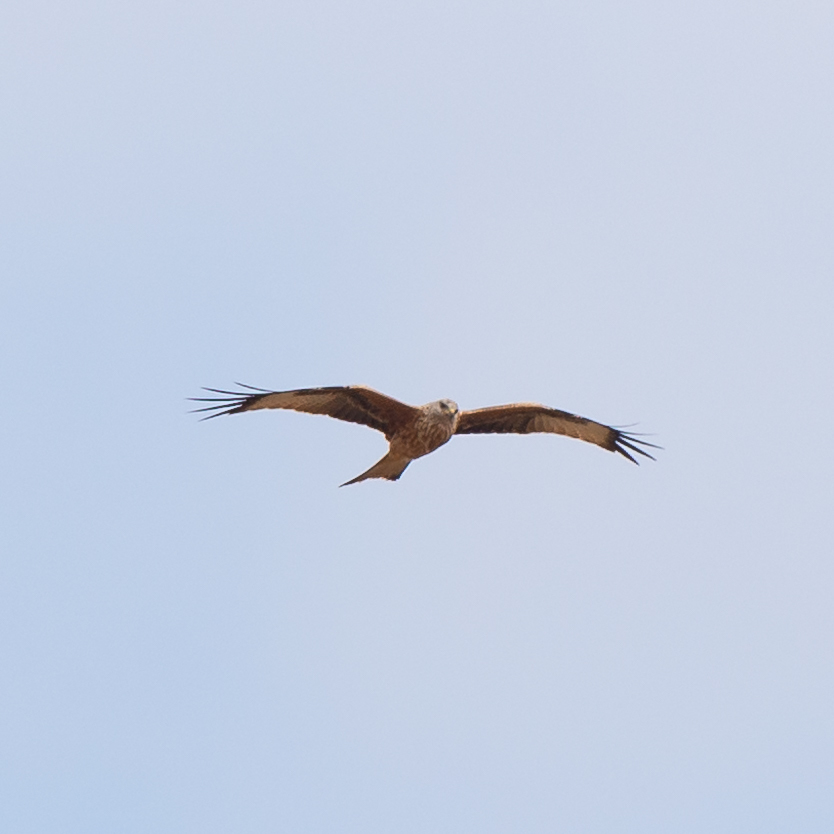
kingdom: Animalia
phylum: Chordata
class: Aves
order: Accipitriformes
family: Accipitridae
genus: Milvus
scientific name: Milvus milvus
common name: Red kite
